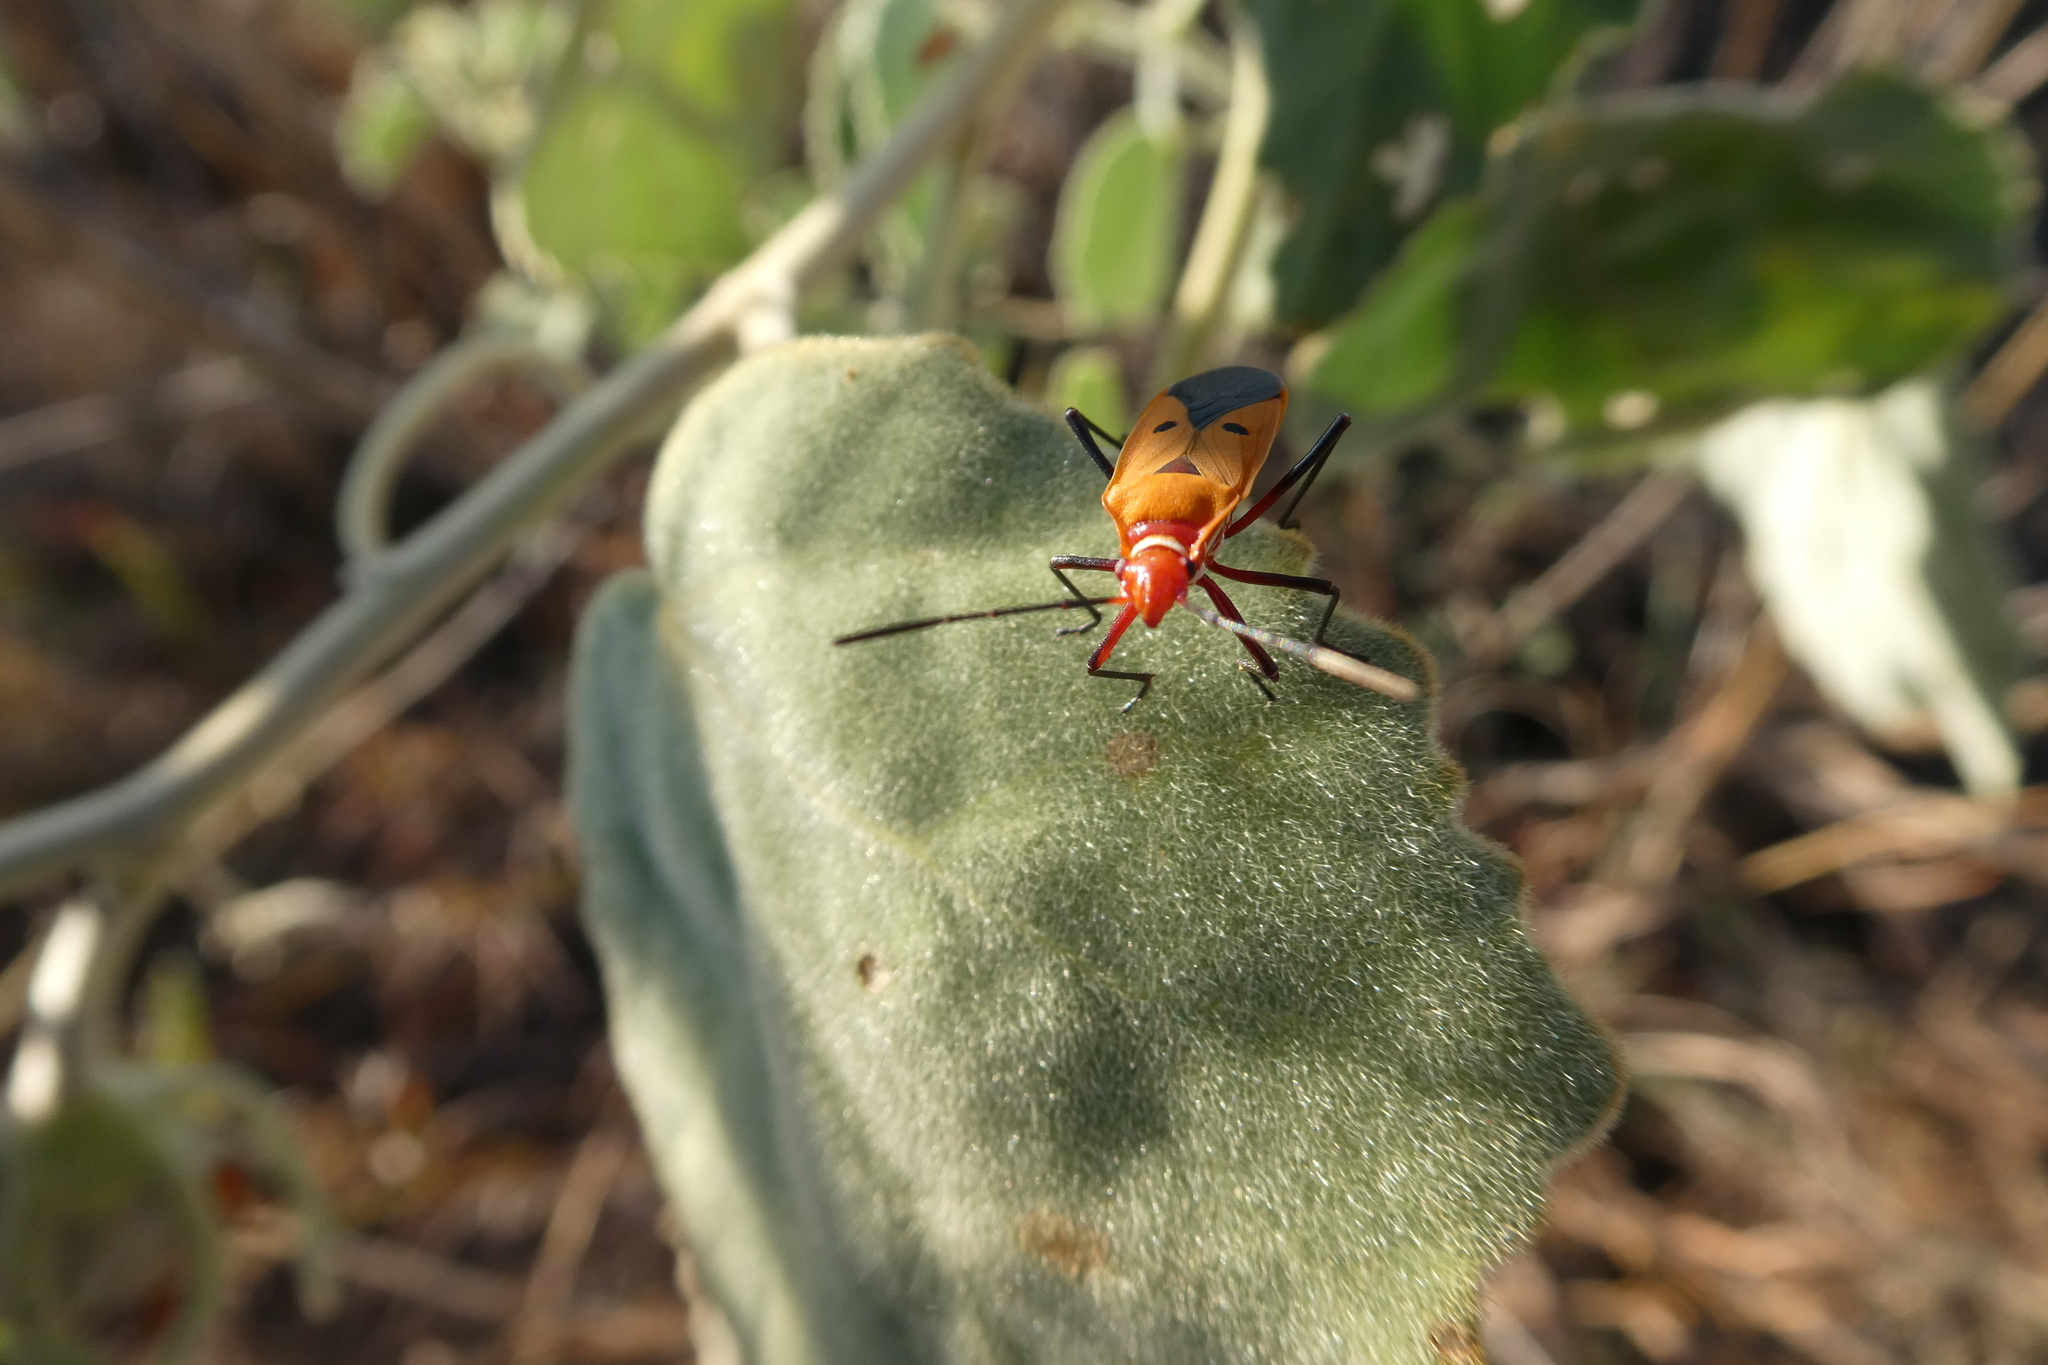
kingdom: Animalia
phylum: Arthropoda
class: Insecta
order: Hemiptera
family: Pyrrhocoridae
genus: Dysdercus
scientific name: Dysdercus cingulatus
